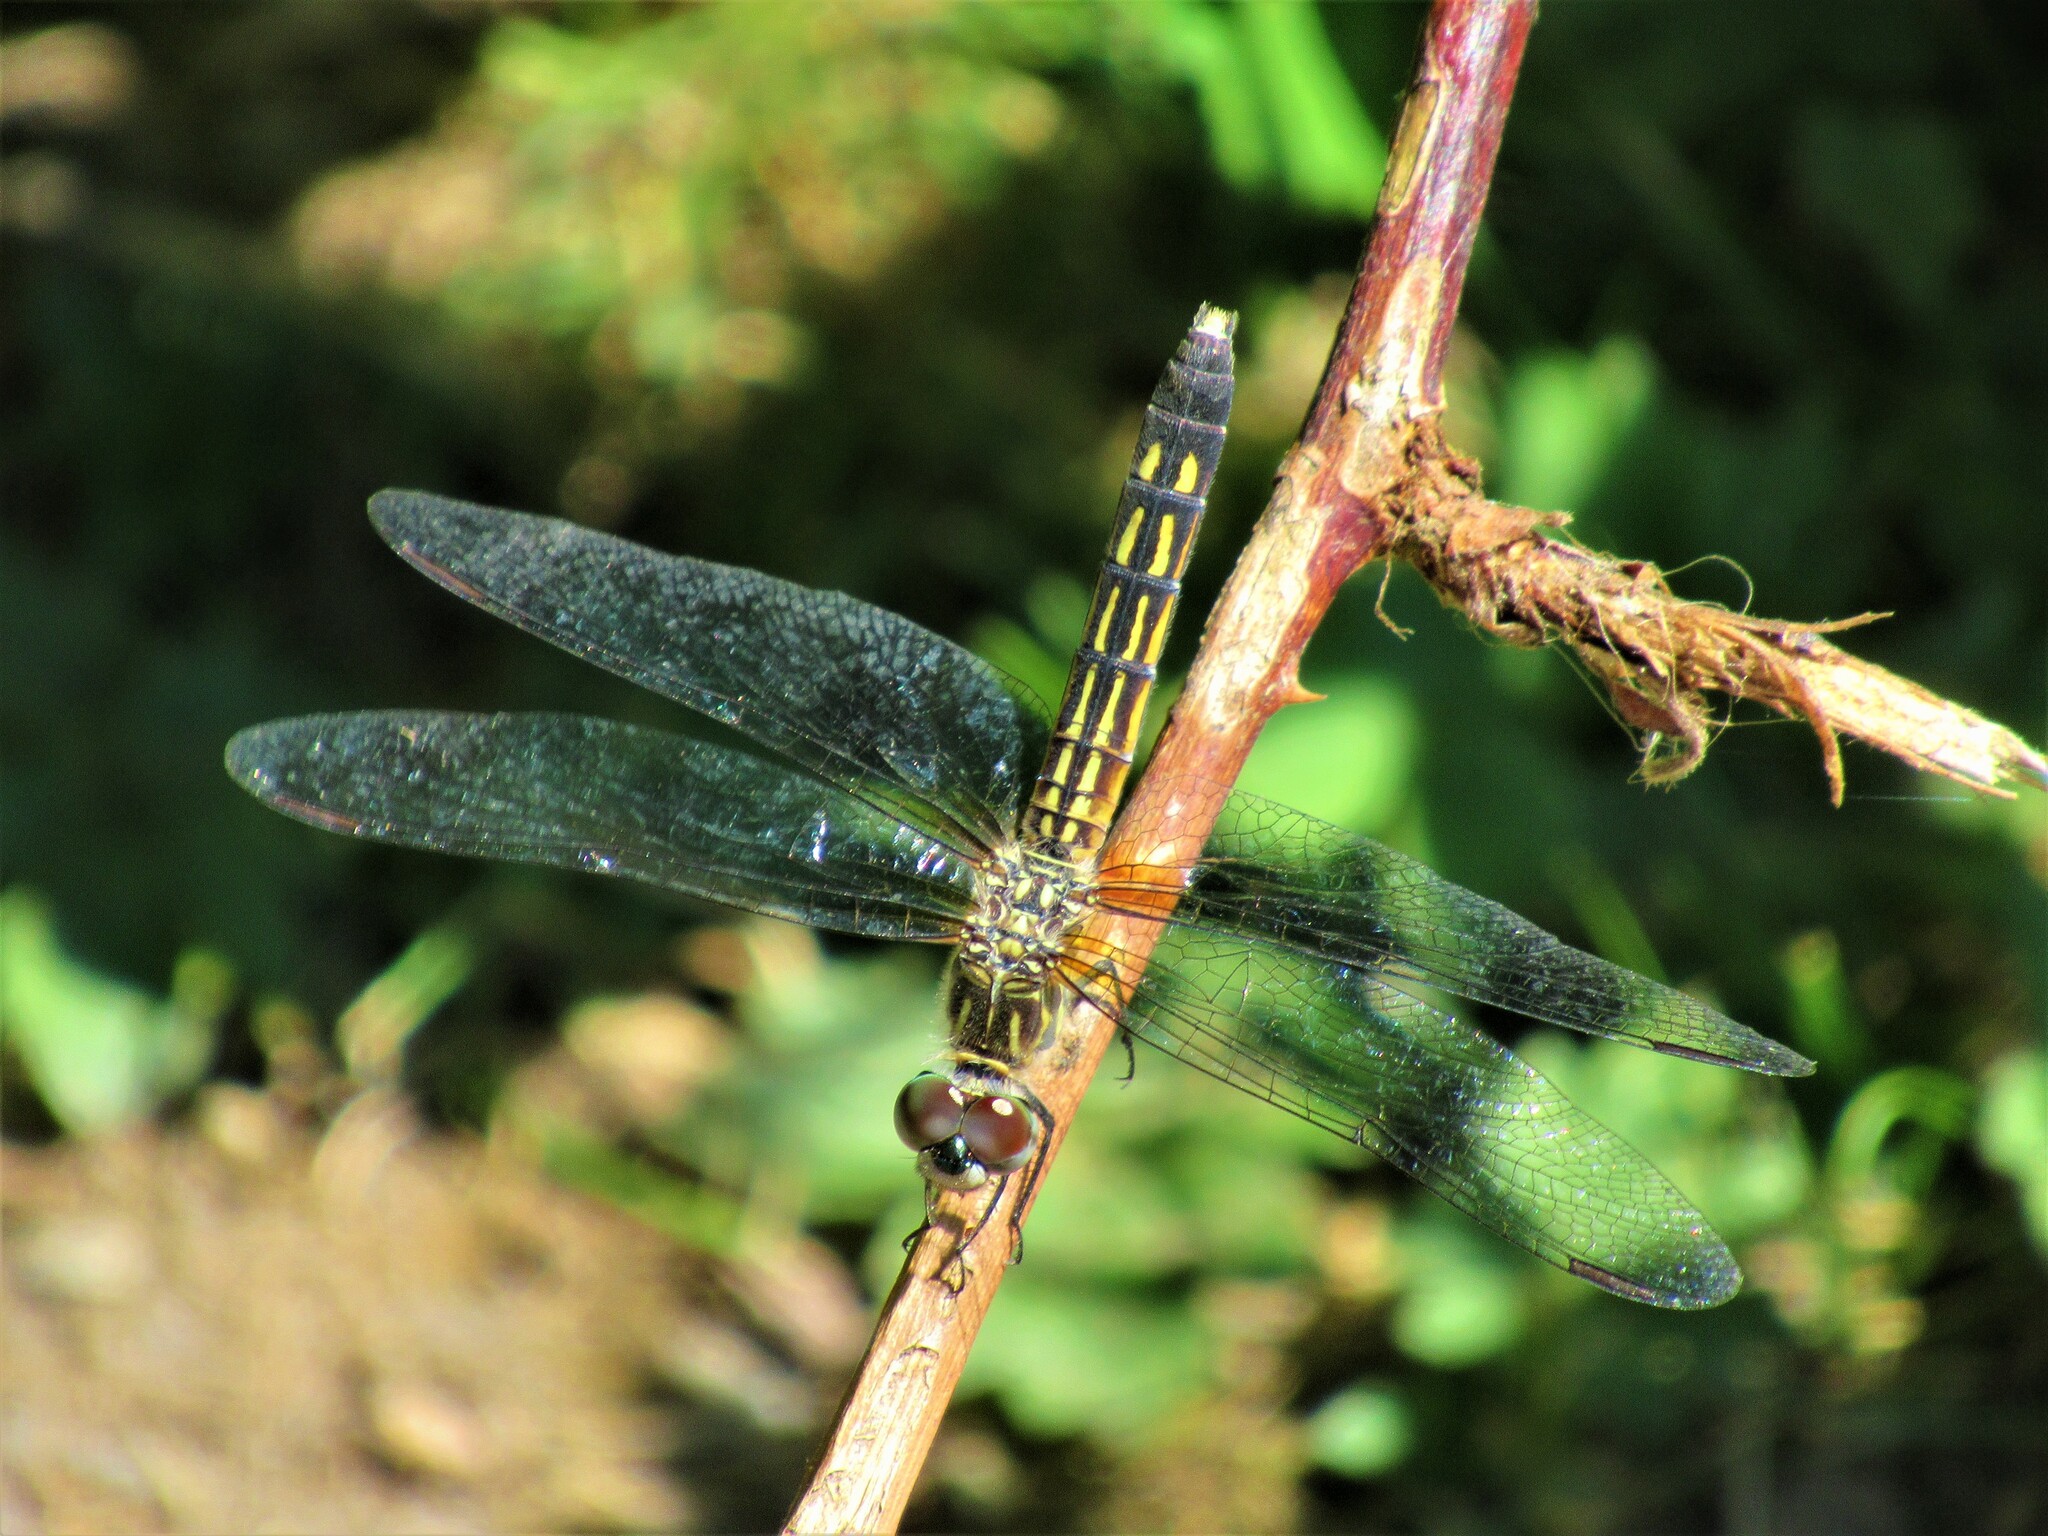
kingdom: Animalia
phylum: Arthropoda
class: Insecta
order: Odonata
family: Libellulidae
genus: Pachydiplax
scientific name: Pachydiplax longipennis
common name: Blue dasher
